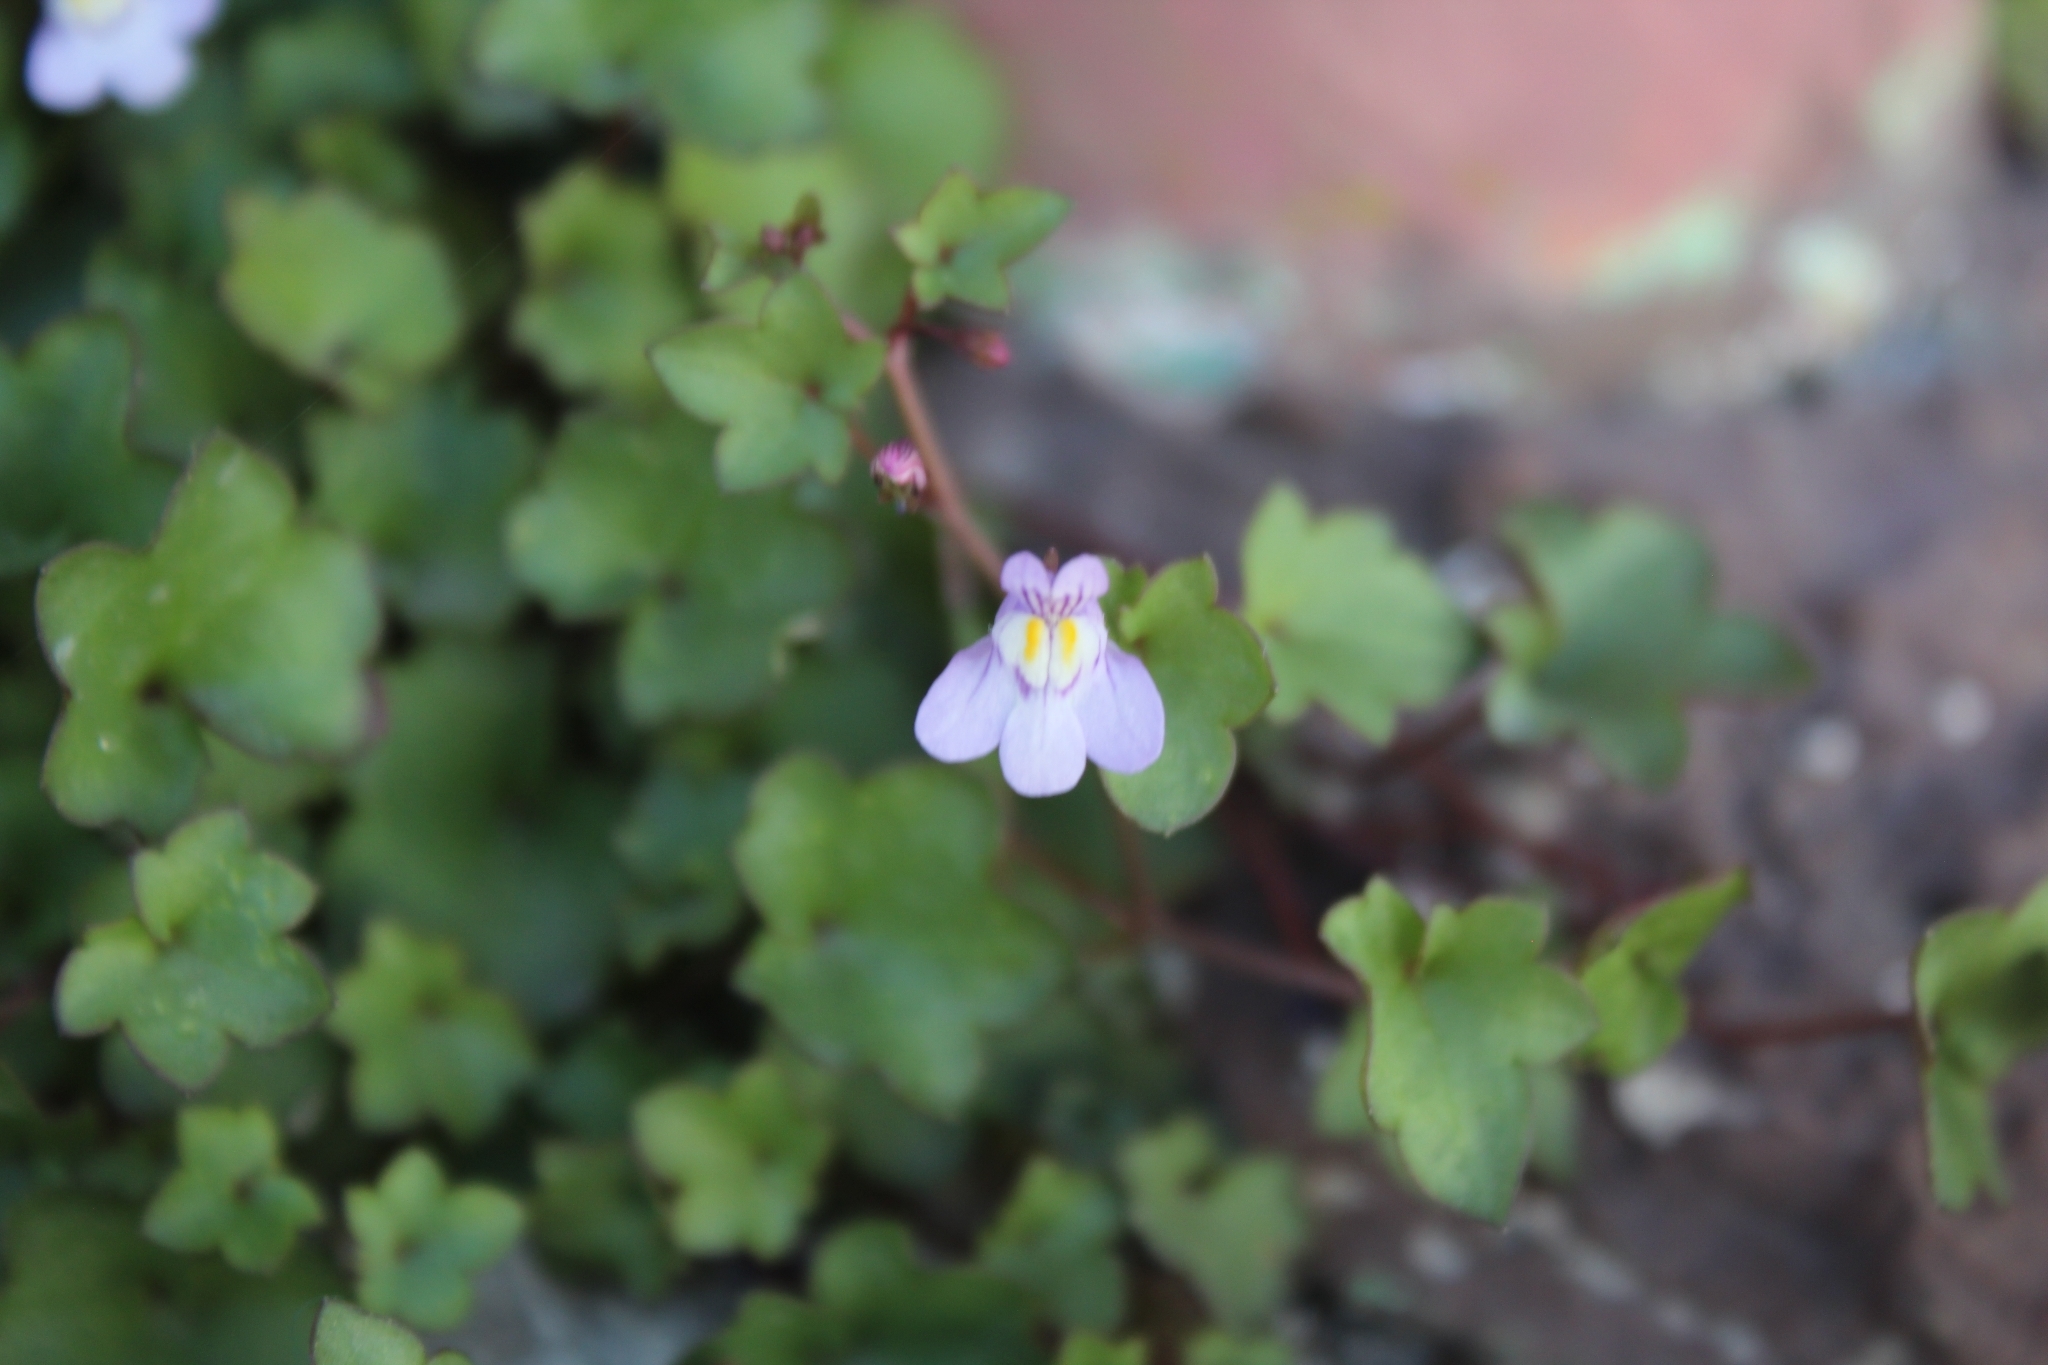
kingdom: Plantae
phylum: Tracheophyta
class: Magnoliopsida
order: Lamiales
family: Plantaginaceae
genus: Cymbalaria
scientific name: Cymbalaria muralis
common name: Ivy-leaved toadflax
